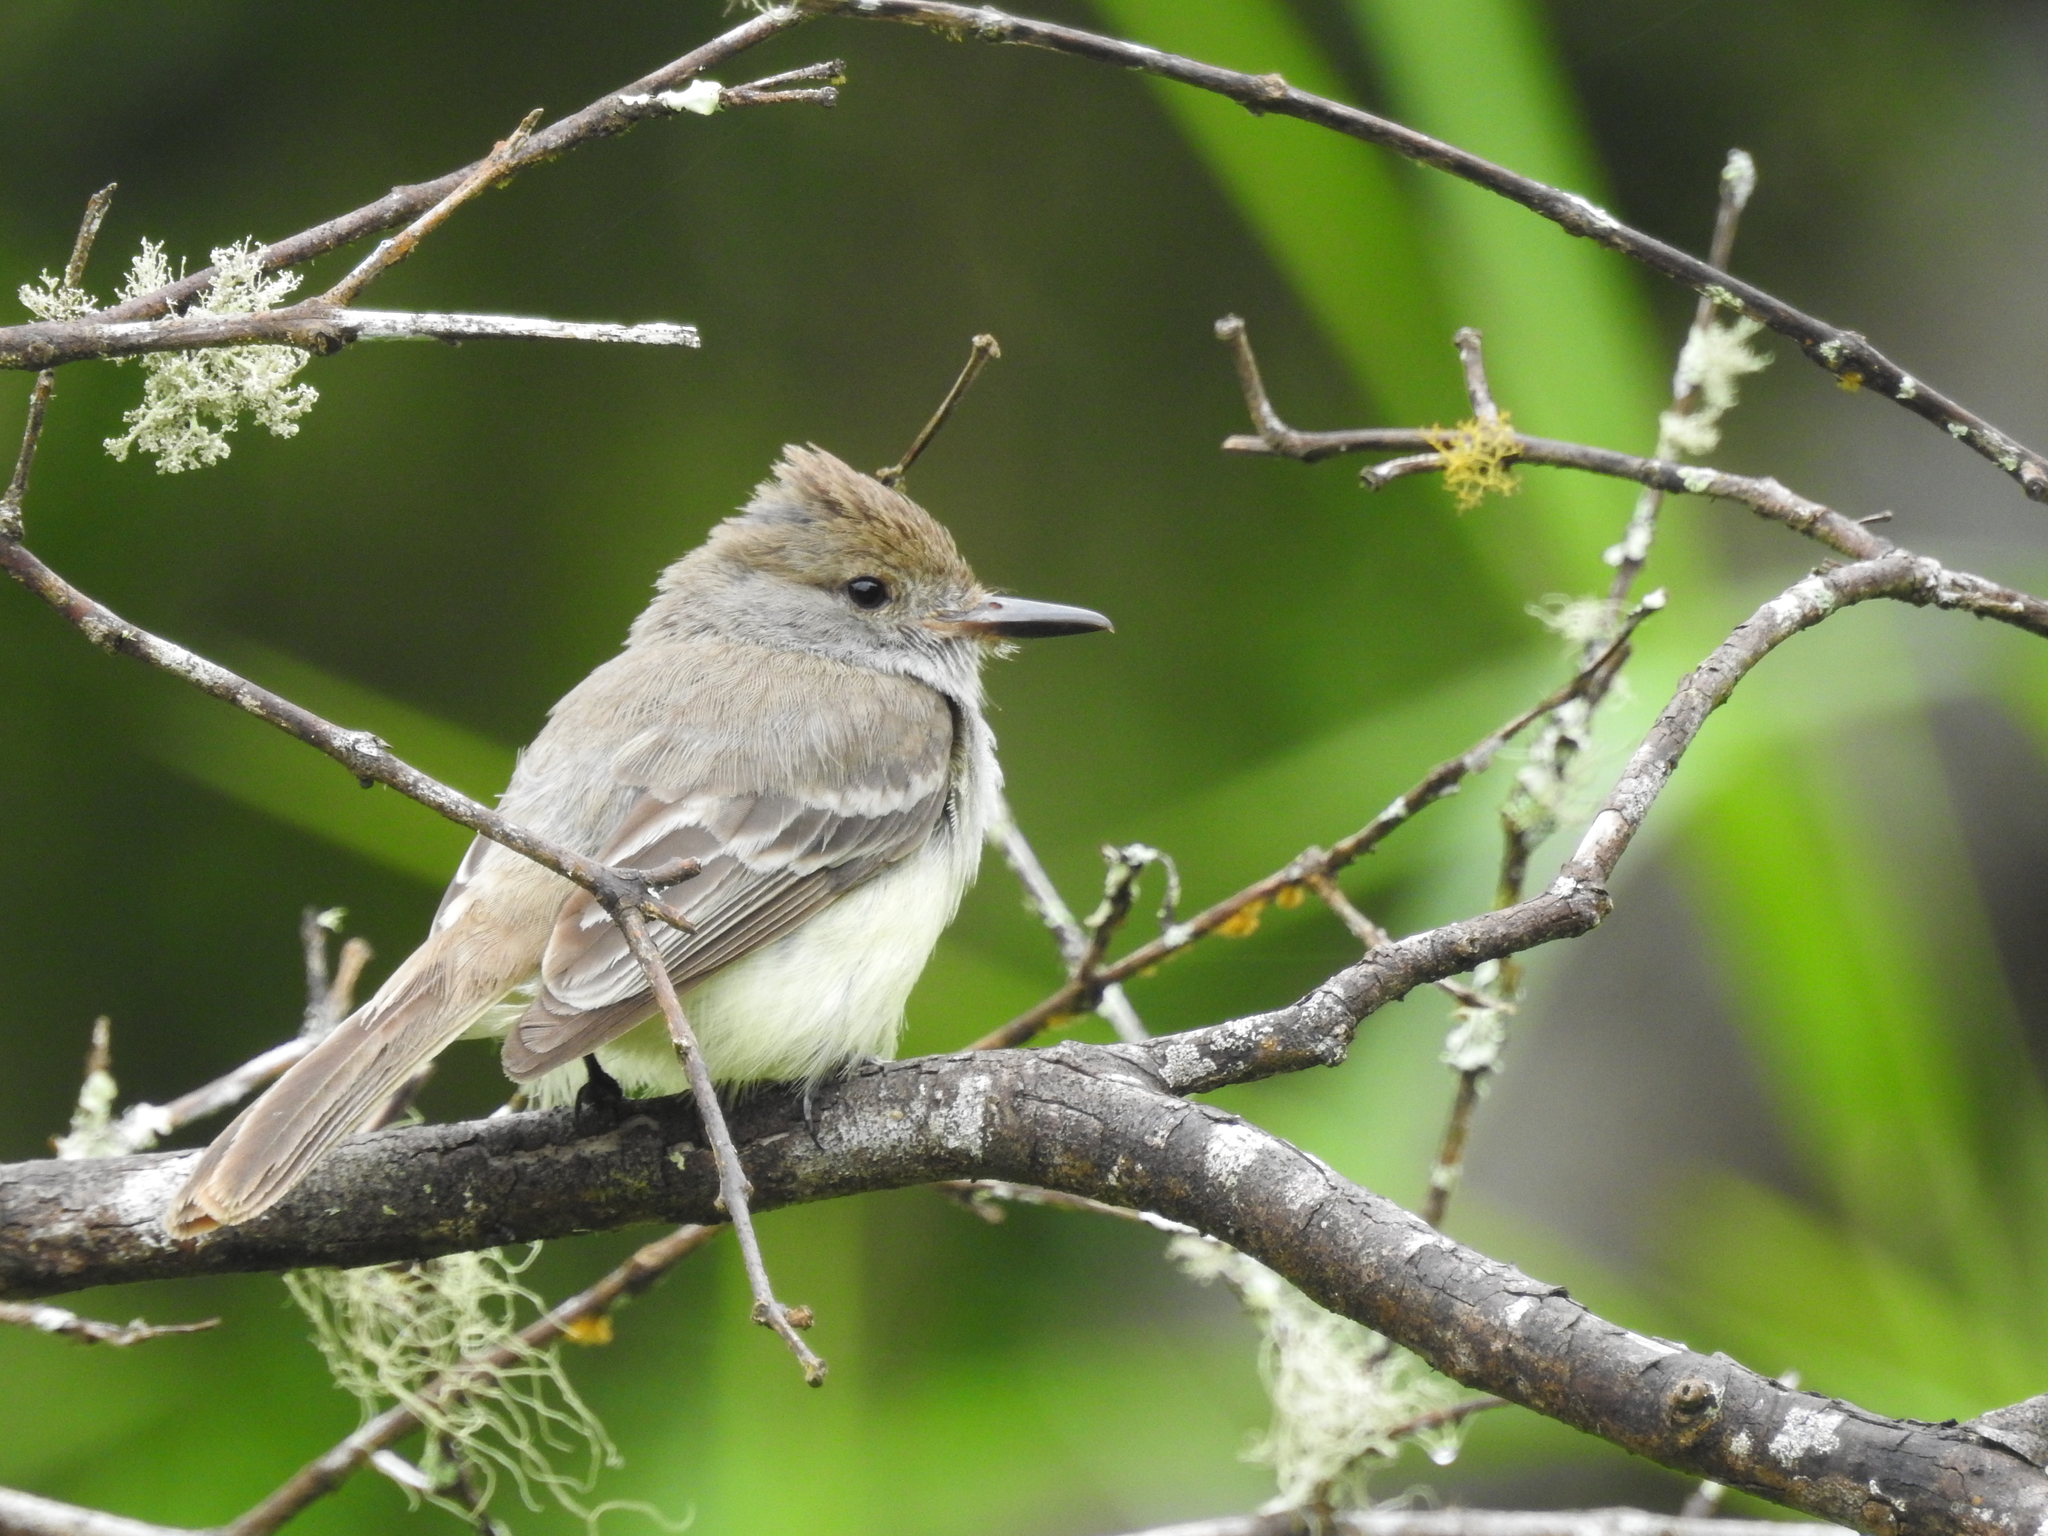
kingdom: Animalia
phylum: Chordata
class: Aves
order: Passeriformes
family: Tyrannidae
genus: Myiarchus
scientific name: Myiarchus magnirostris
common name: Galapagos flycatcher
